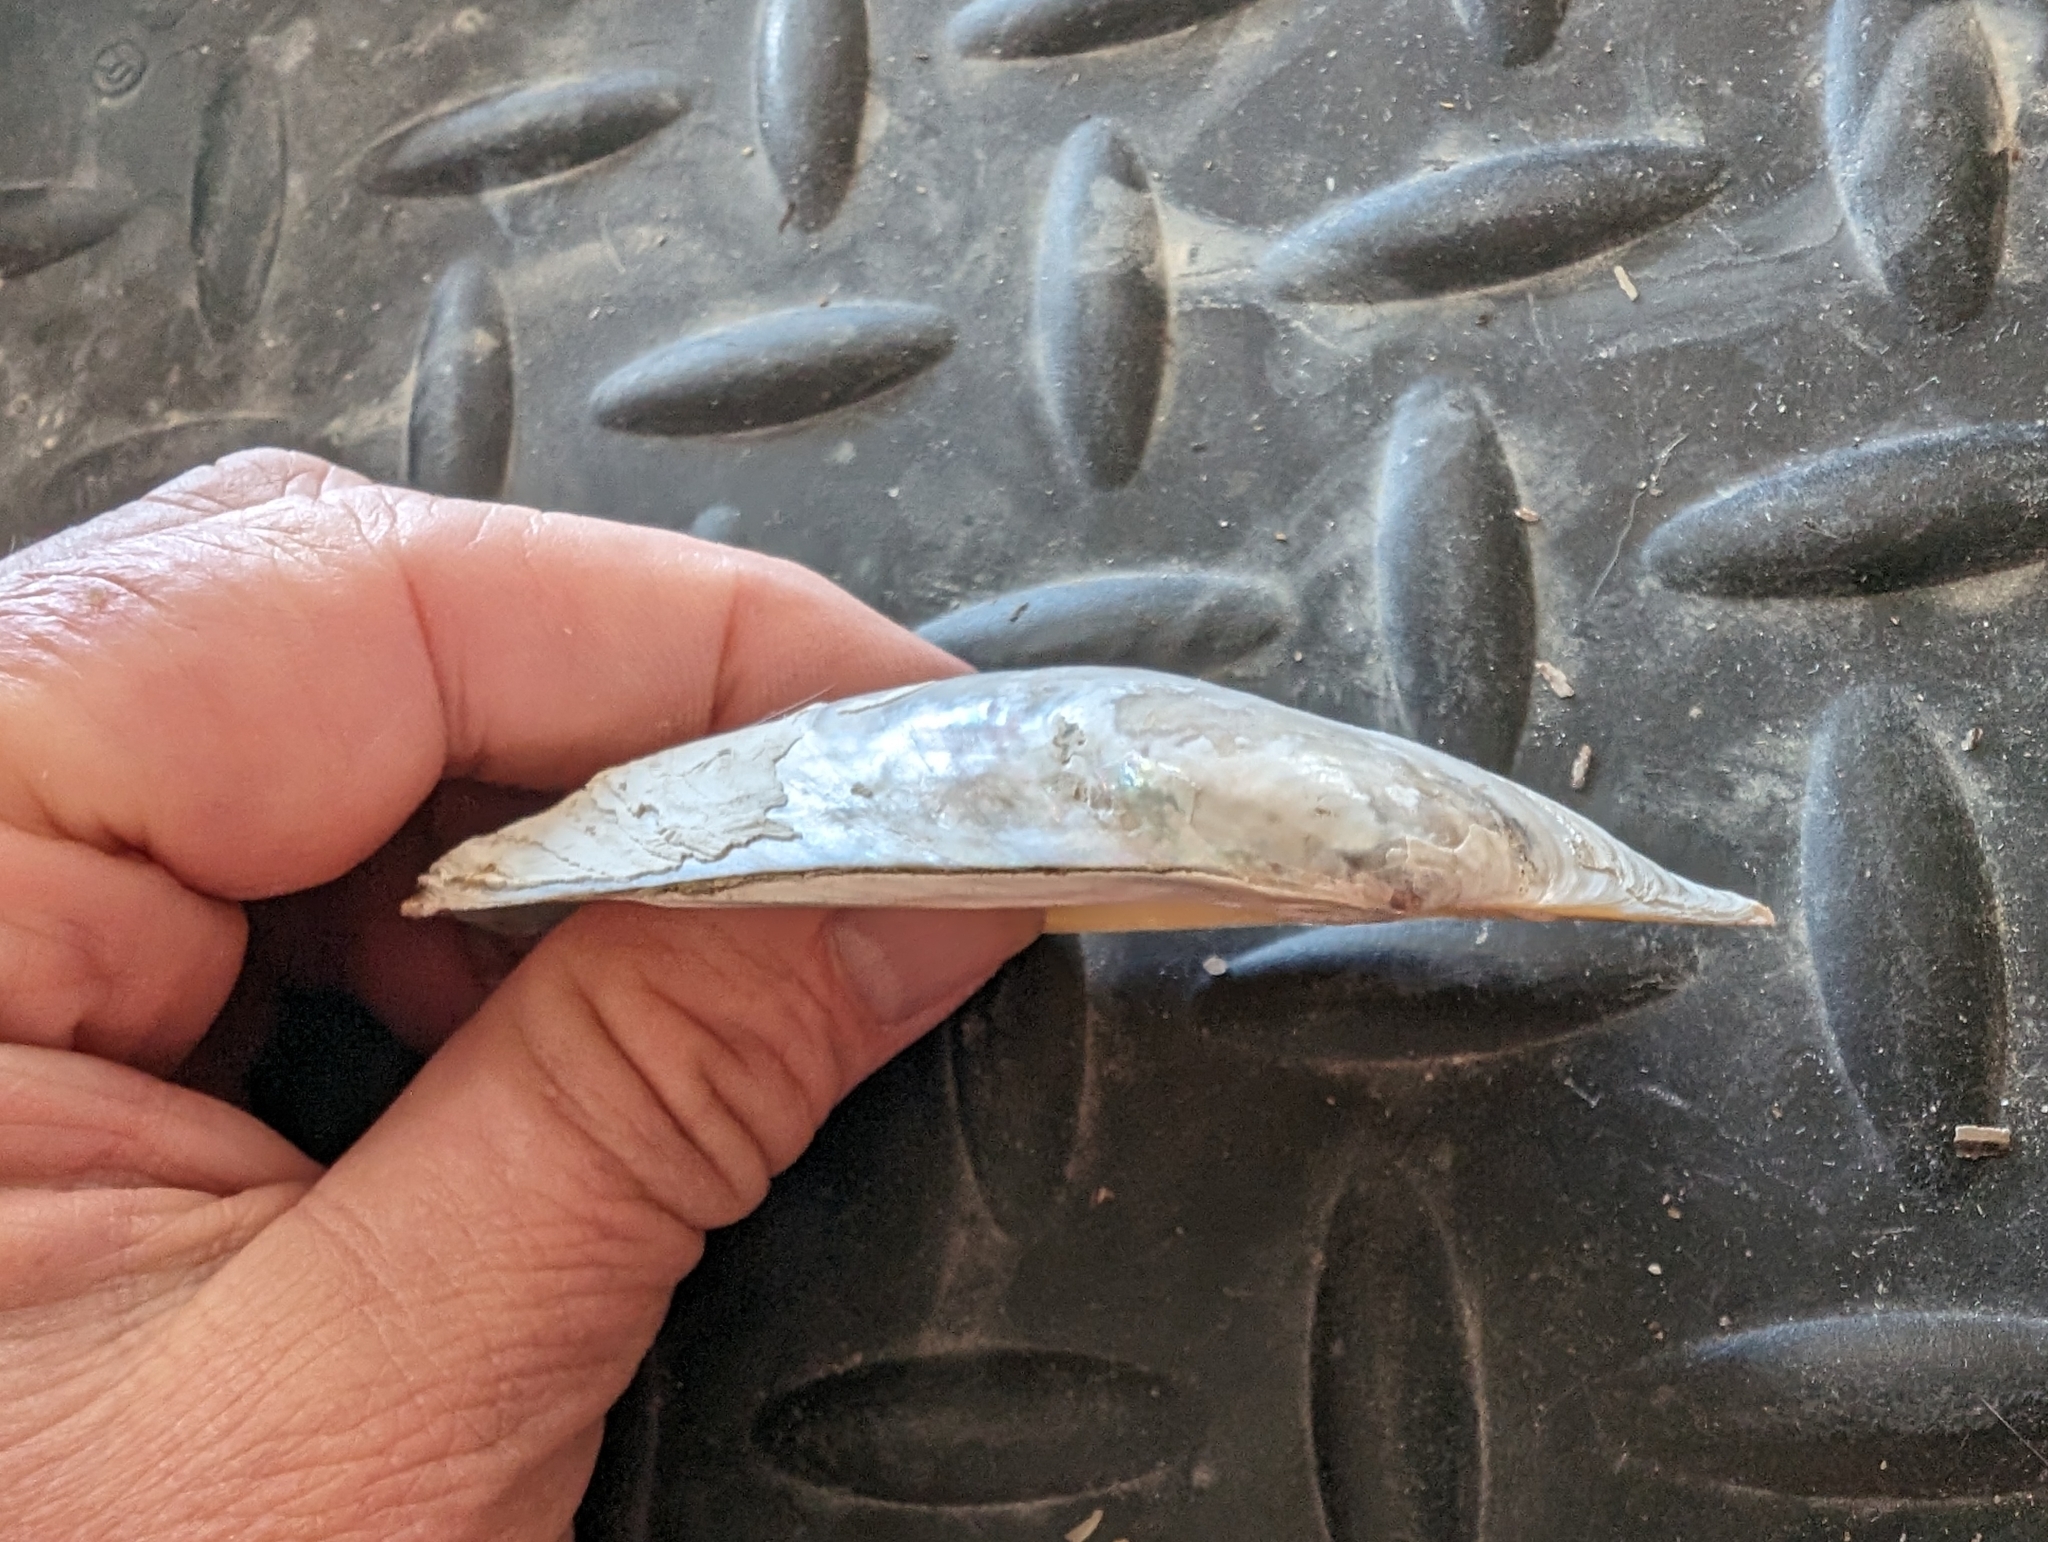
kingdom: Animalia
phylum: Mollusca
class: Bivalvia
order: Unionida
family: Unionidae
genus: Potamilus
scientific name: Potamilus fragilis
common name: Fragile papershell
